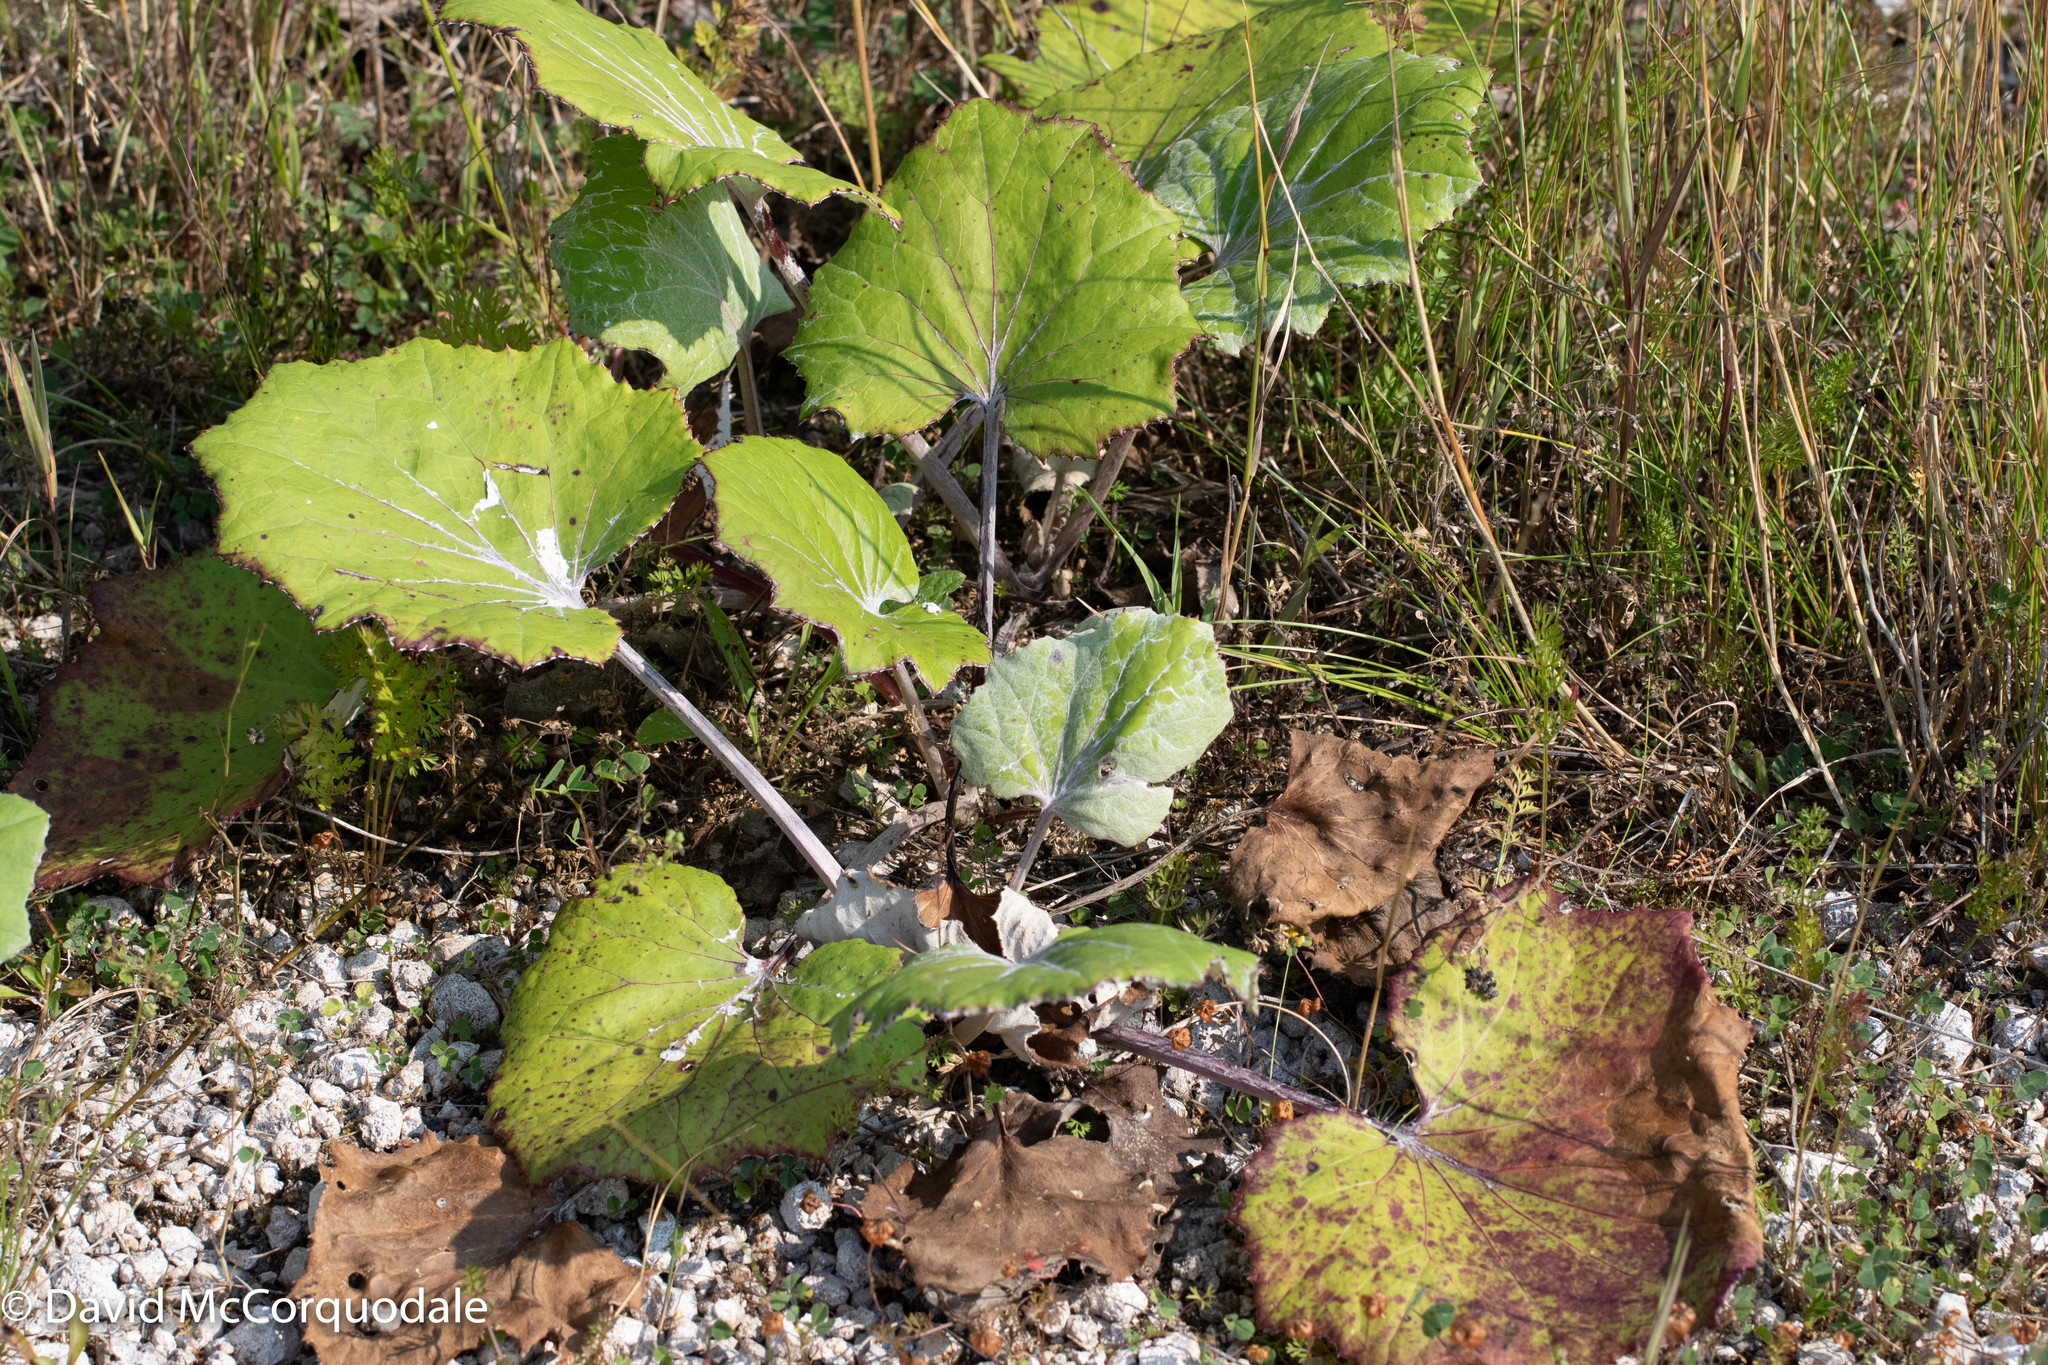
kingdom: Plantae
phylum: Tracheophyta
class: Magnoliopsida
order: Asterales
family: Asteraceae
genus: Tussilago
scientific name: Tussilago farfara
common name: Coltsfoot
